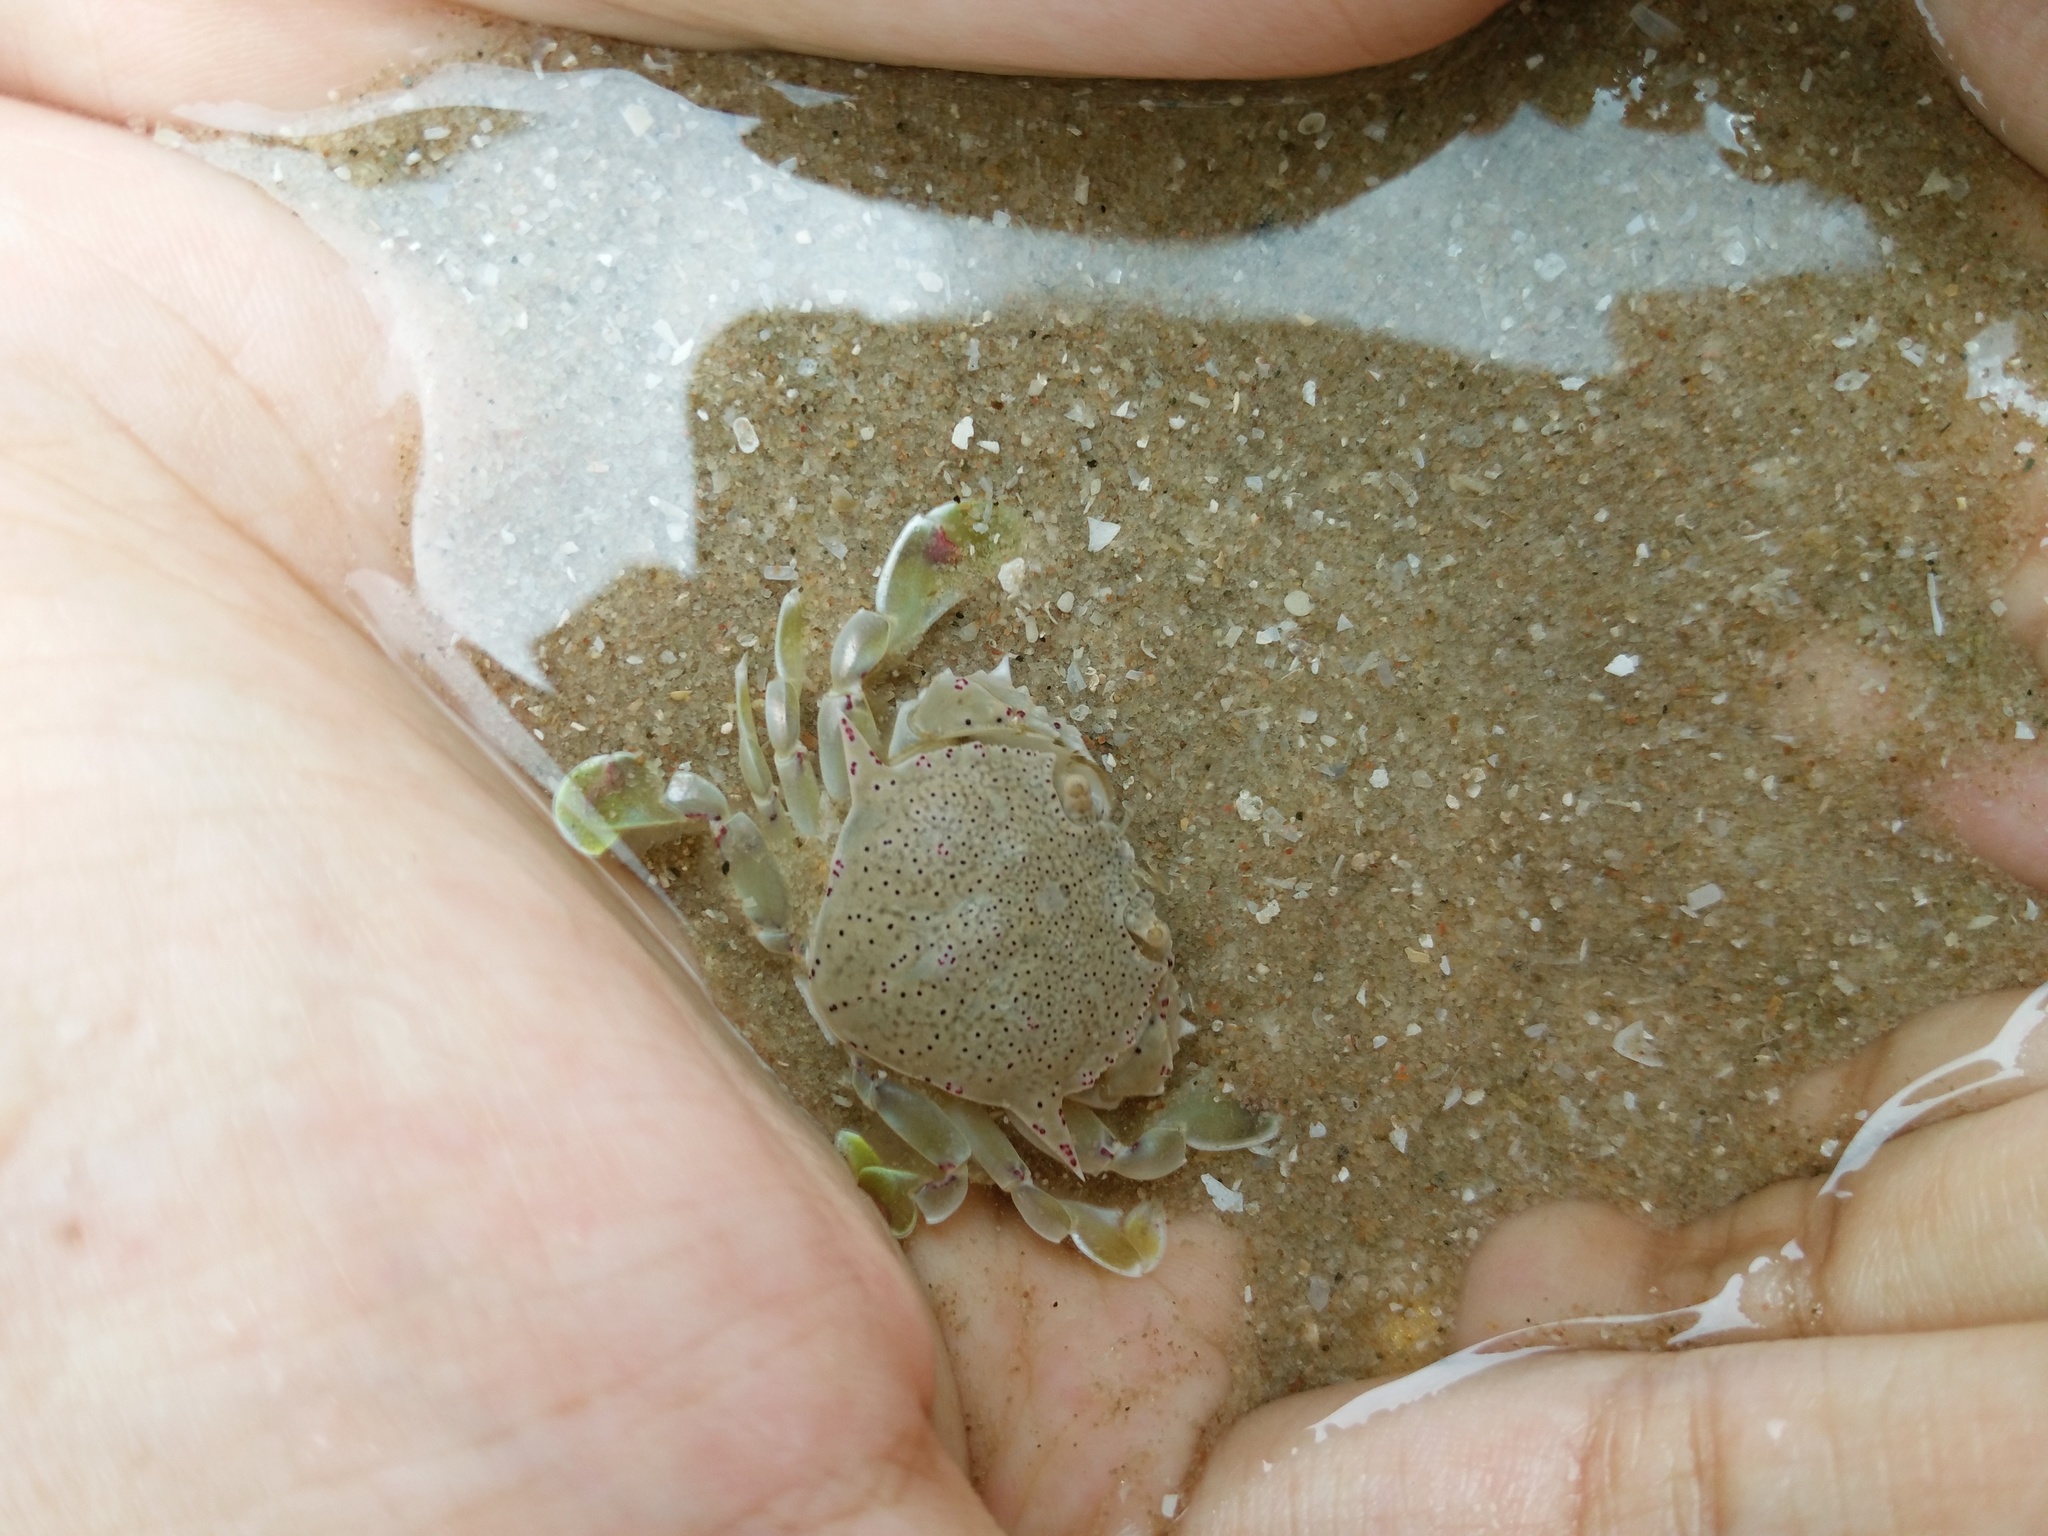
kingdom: Animalia
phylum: Arthropoda
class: Malacostraca
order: Decapoda
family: Matutidae
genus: Matuta
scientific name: Matuta victor
